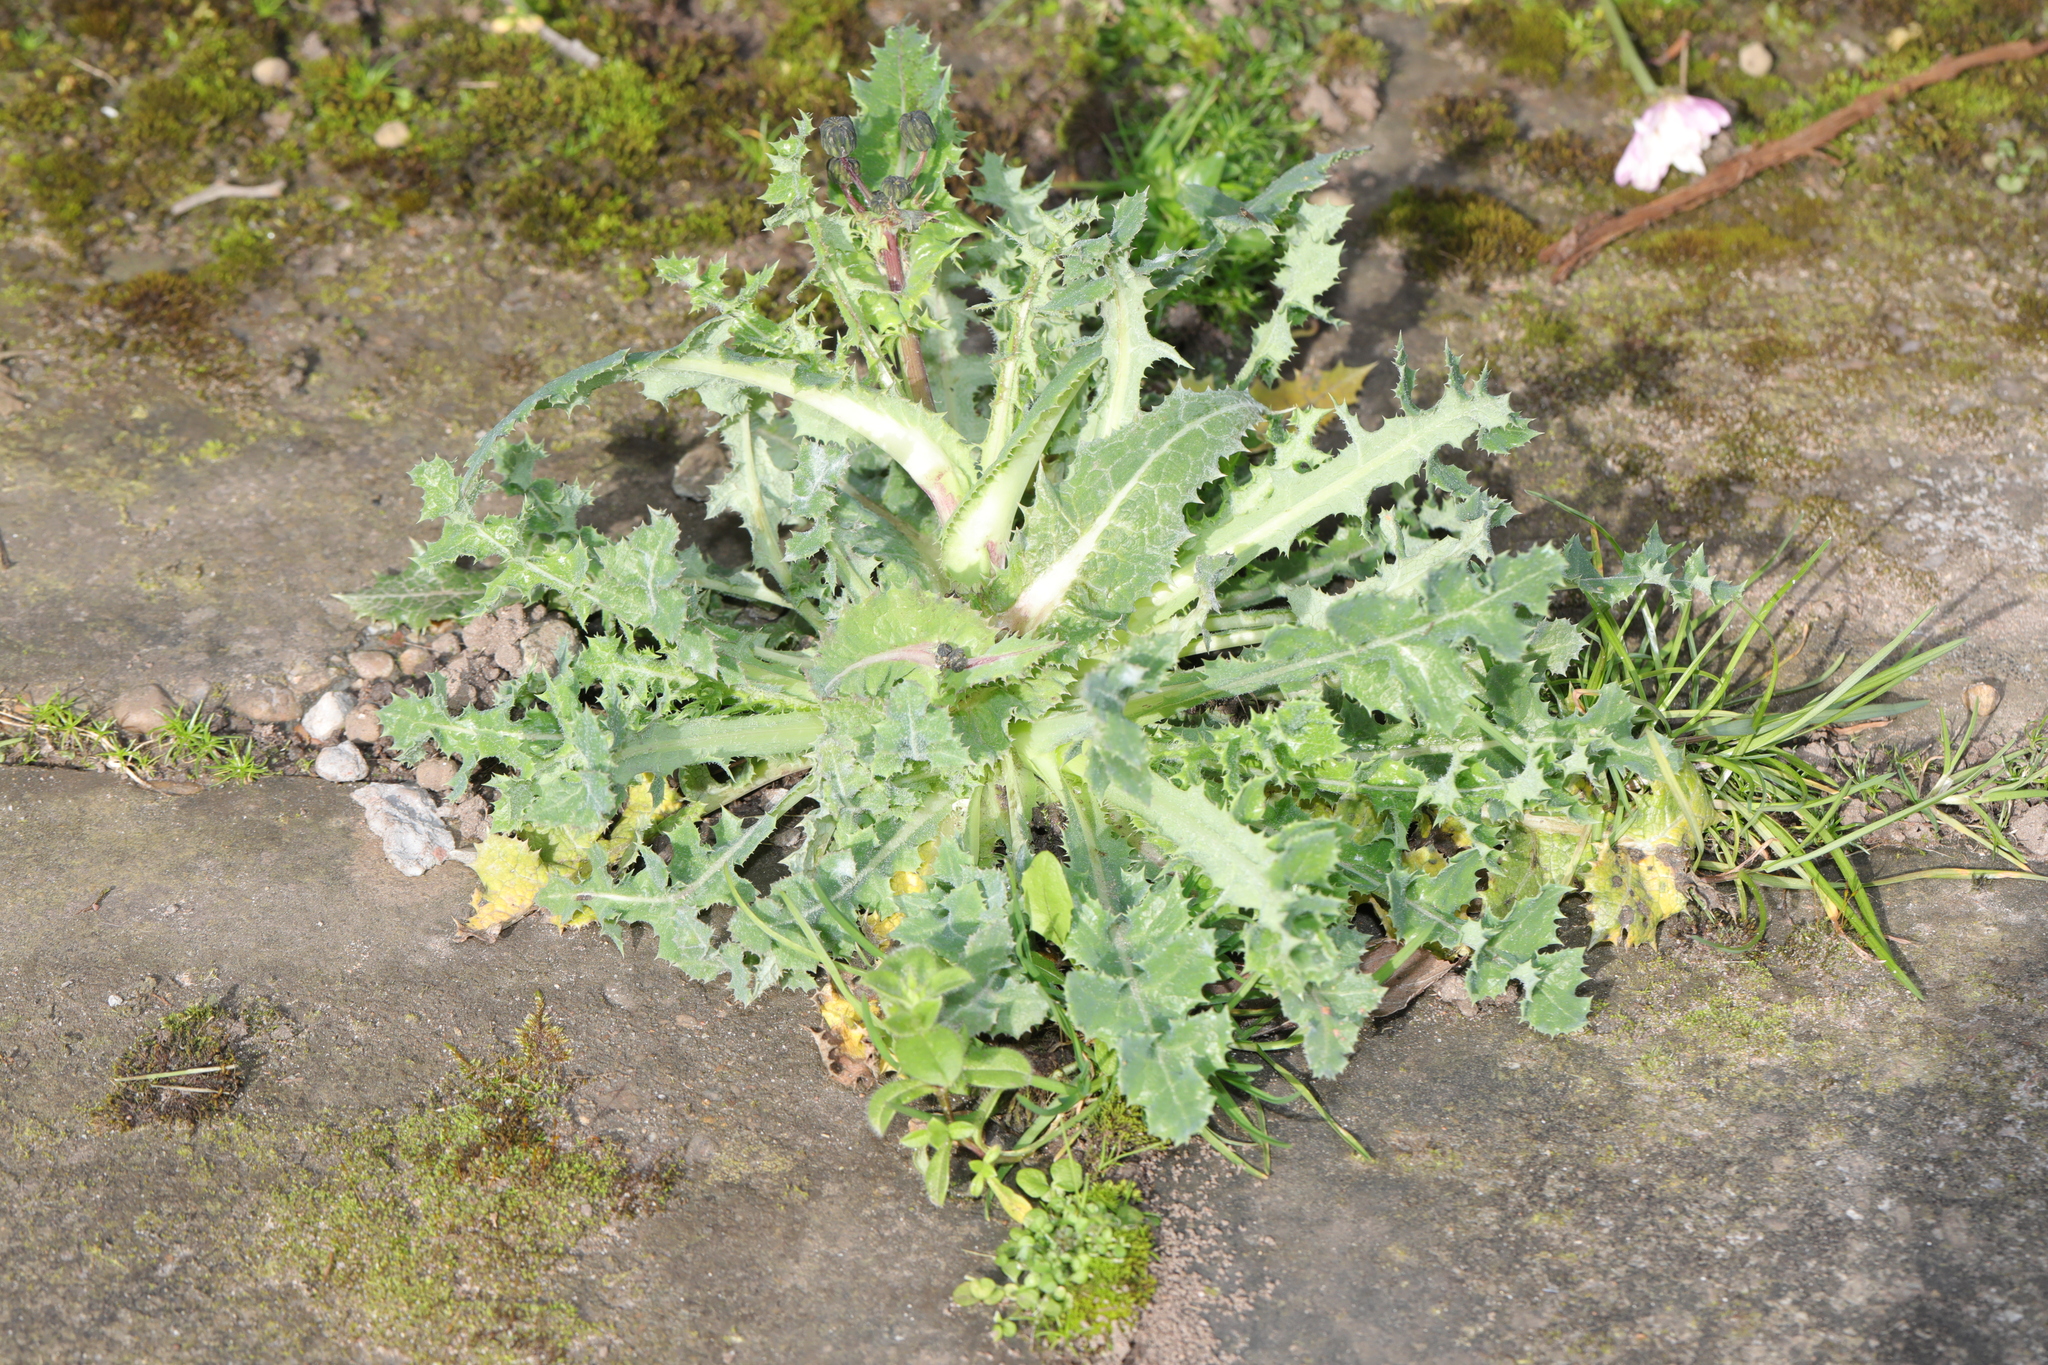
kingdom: Plantae
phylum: Tracheophyta
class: Magnoliopsida
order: Asterales
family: Asteraceae
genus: Sonchus
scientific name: Sonchus asper
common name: Prickly sow-thistle
